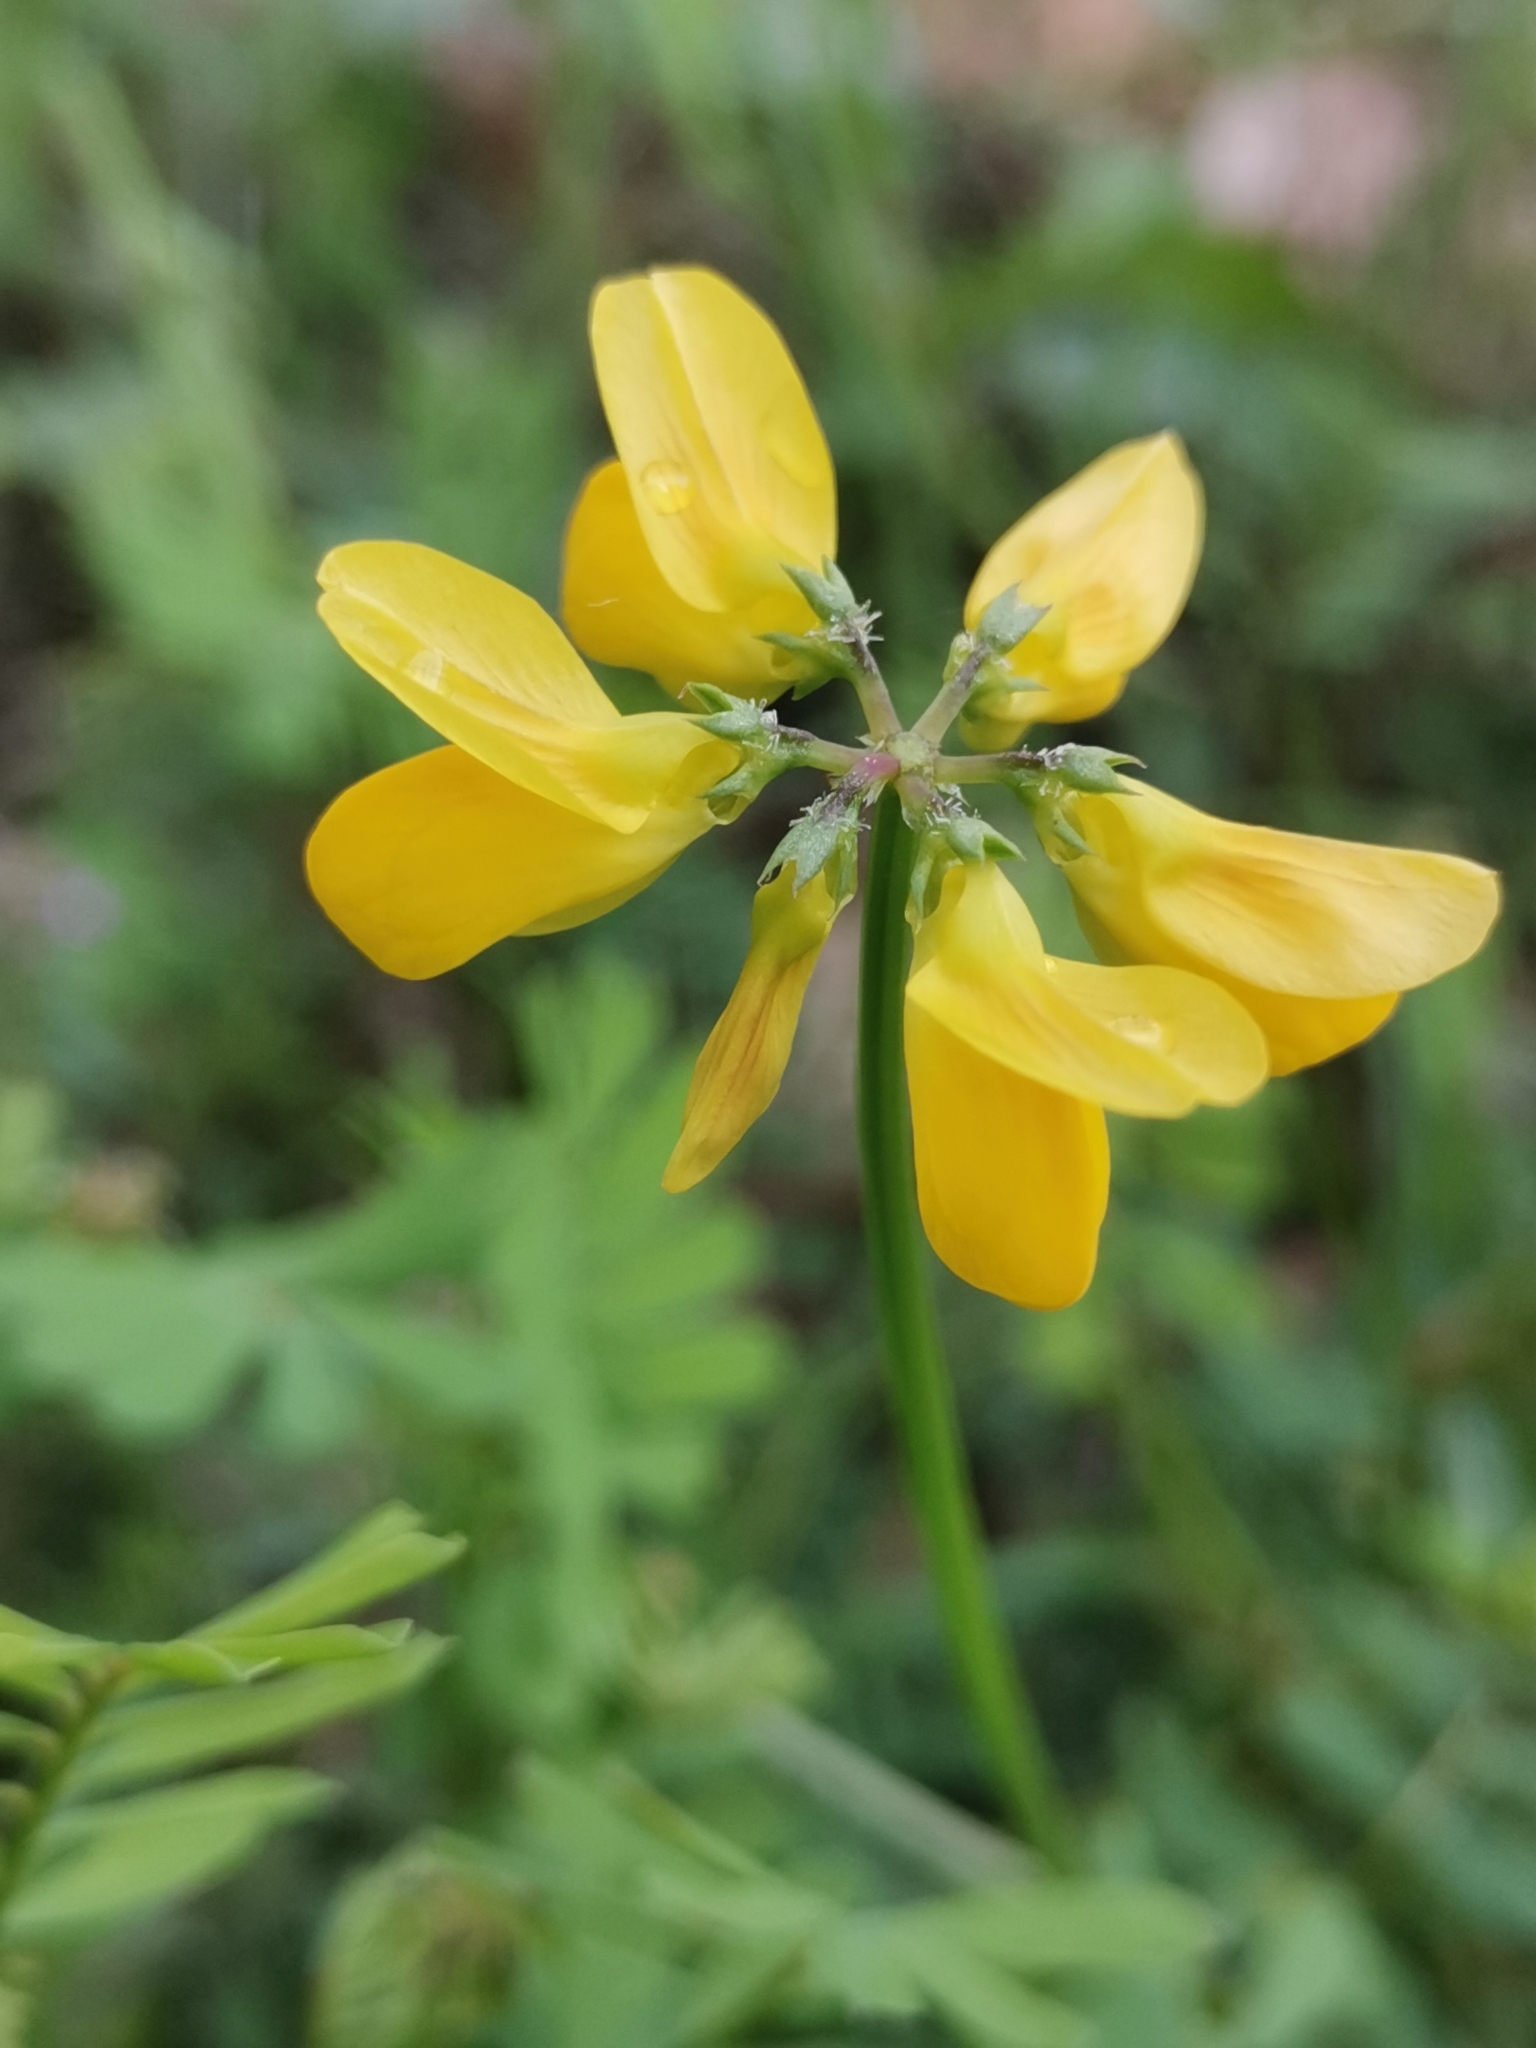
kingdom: Plantae
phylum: Tracheophyta
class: Magnoliopsida
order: Fabales
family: Fabaceae
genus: Coronilla
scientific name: Coronilla securidaca
